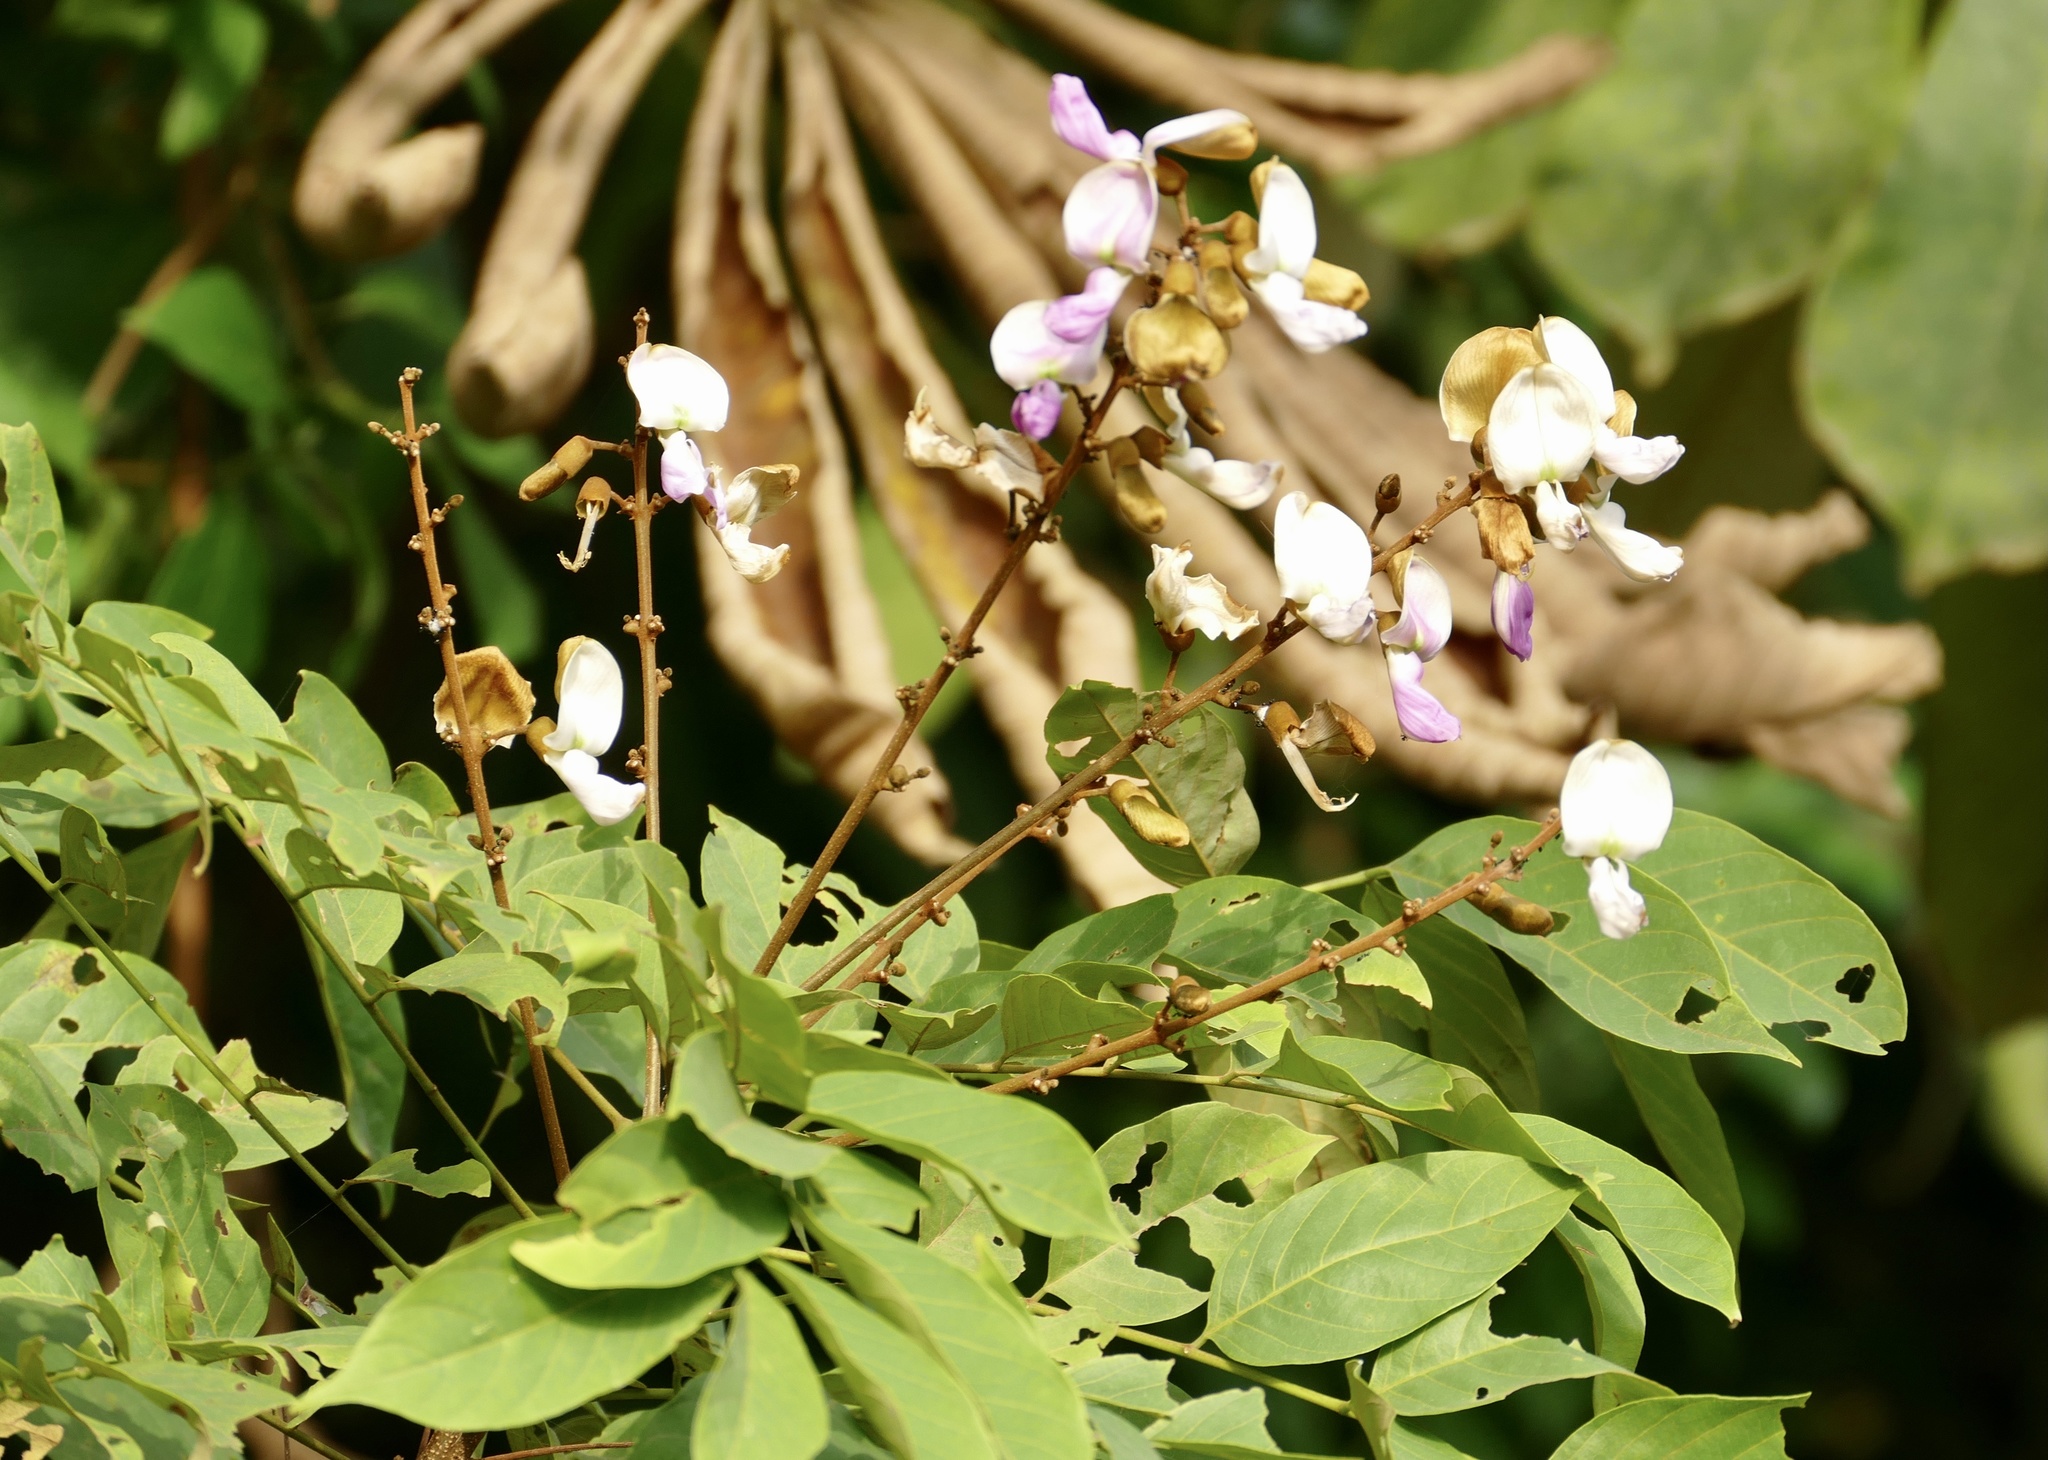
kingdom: Plantae
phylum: Tracheophyta
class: Magnoliopsida
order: Fabales
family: Fabaceae
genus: Millettia
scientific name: Millettia zechiana
